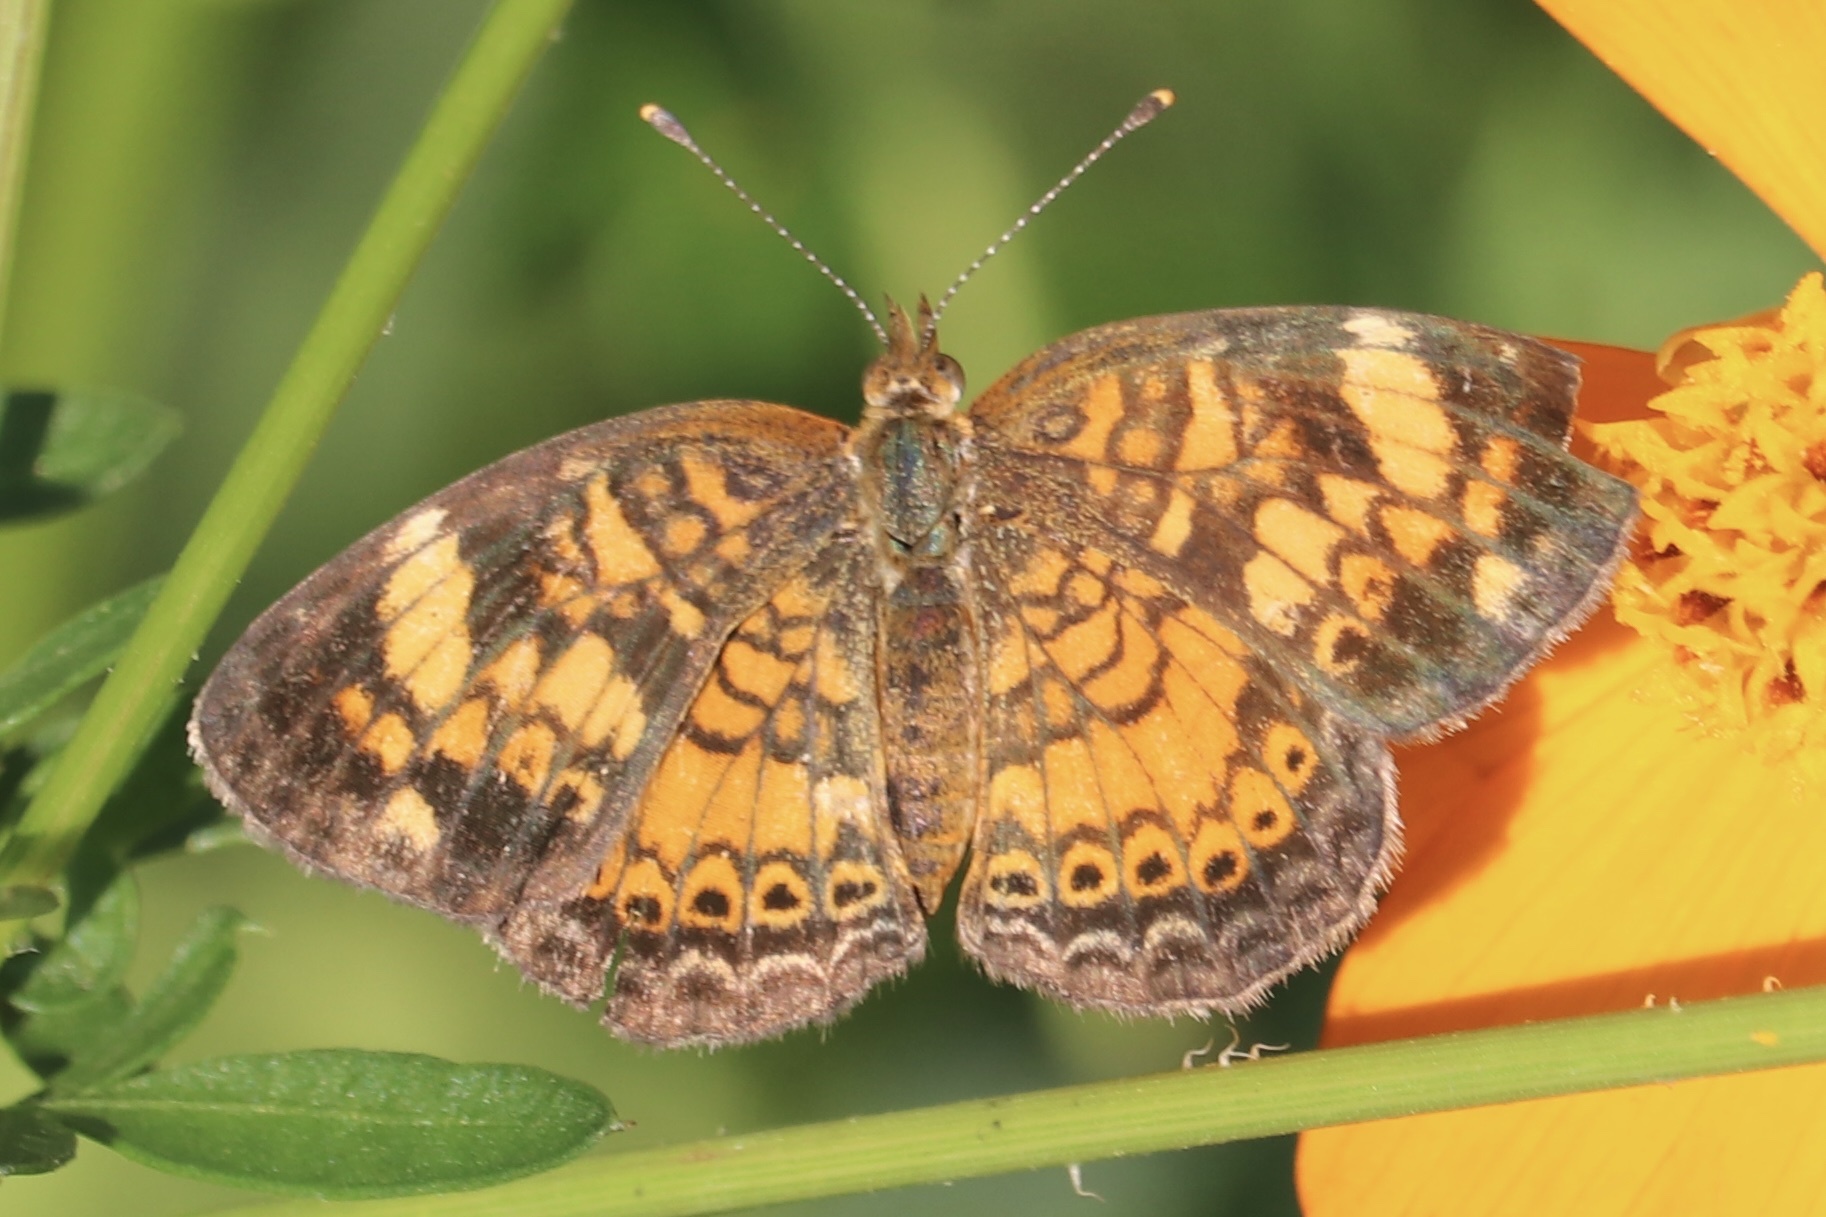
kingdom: Animalia
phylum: Arthropoda
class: Insecta
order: Lepidoptera
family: Nymphalidae
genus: Phyciodes
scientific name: Phyciodes tharos
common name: Pearl crescent
